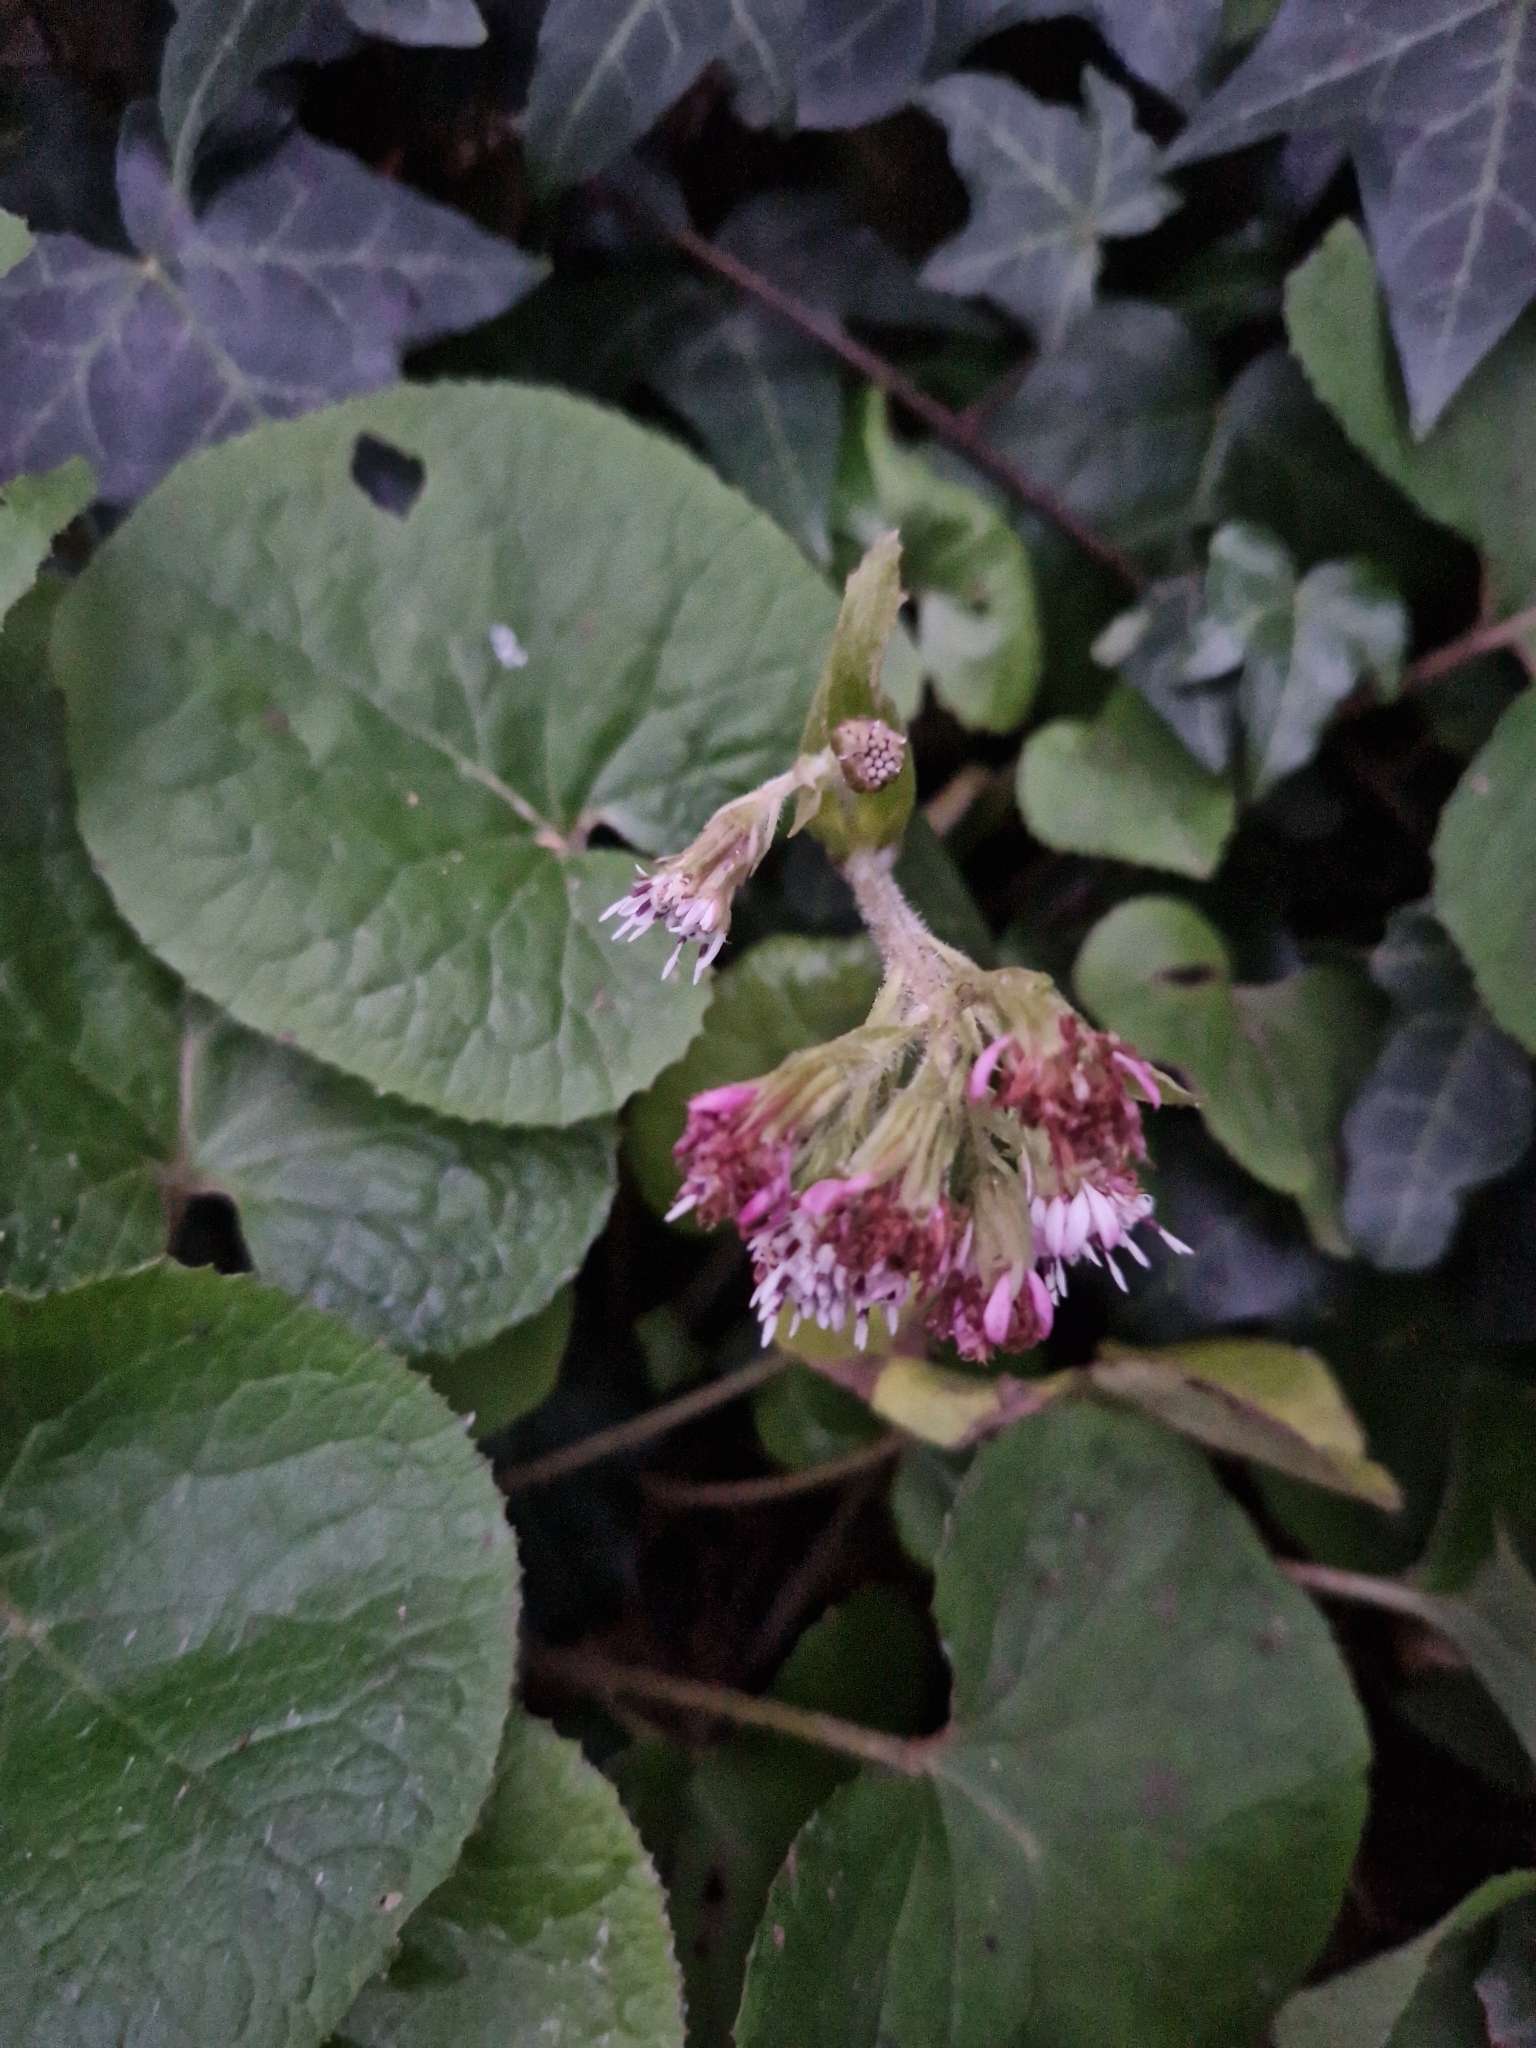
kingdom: Plantae
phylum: Tracheophyta
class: Magnoliopsida
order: Asterales
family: Asteraceae
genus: Petasites
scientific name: Petasites pyrenaicus
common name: Winter heliotrope
